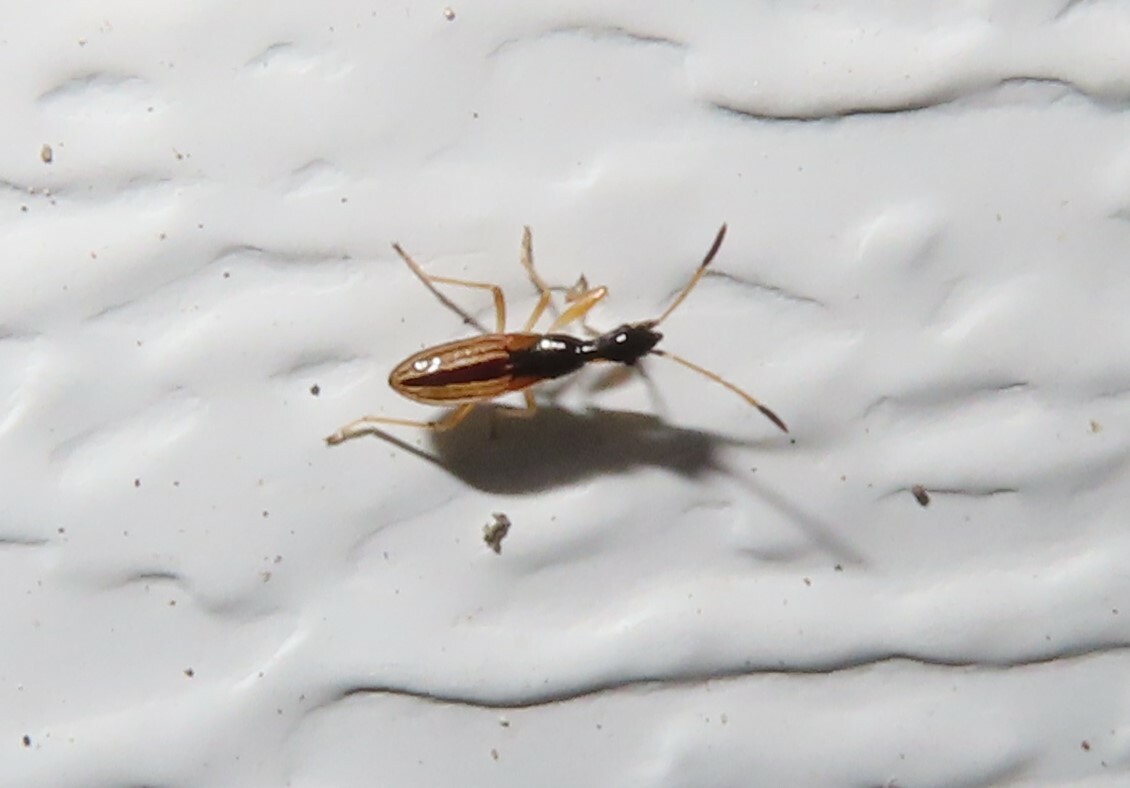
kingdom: Animalia
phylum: Arthropoda
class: Insecta
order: Hemiptera
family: Rhyparochromidae
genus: Myodocha
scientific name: Myodocha serripes
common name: Long-necked seed bug
